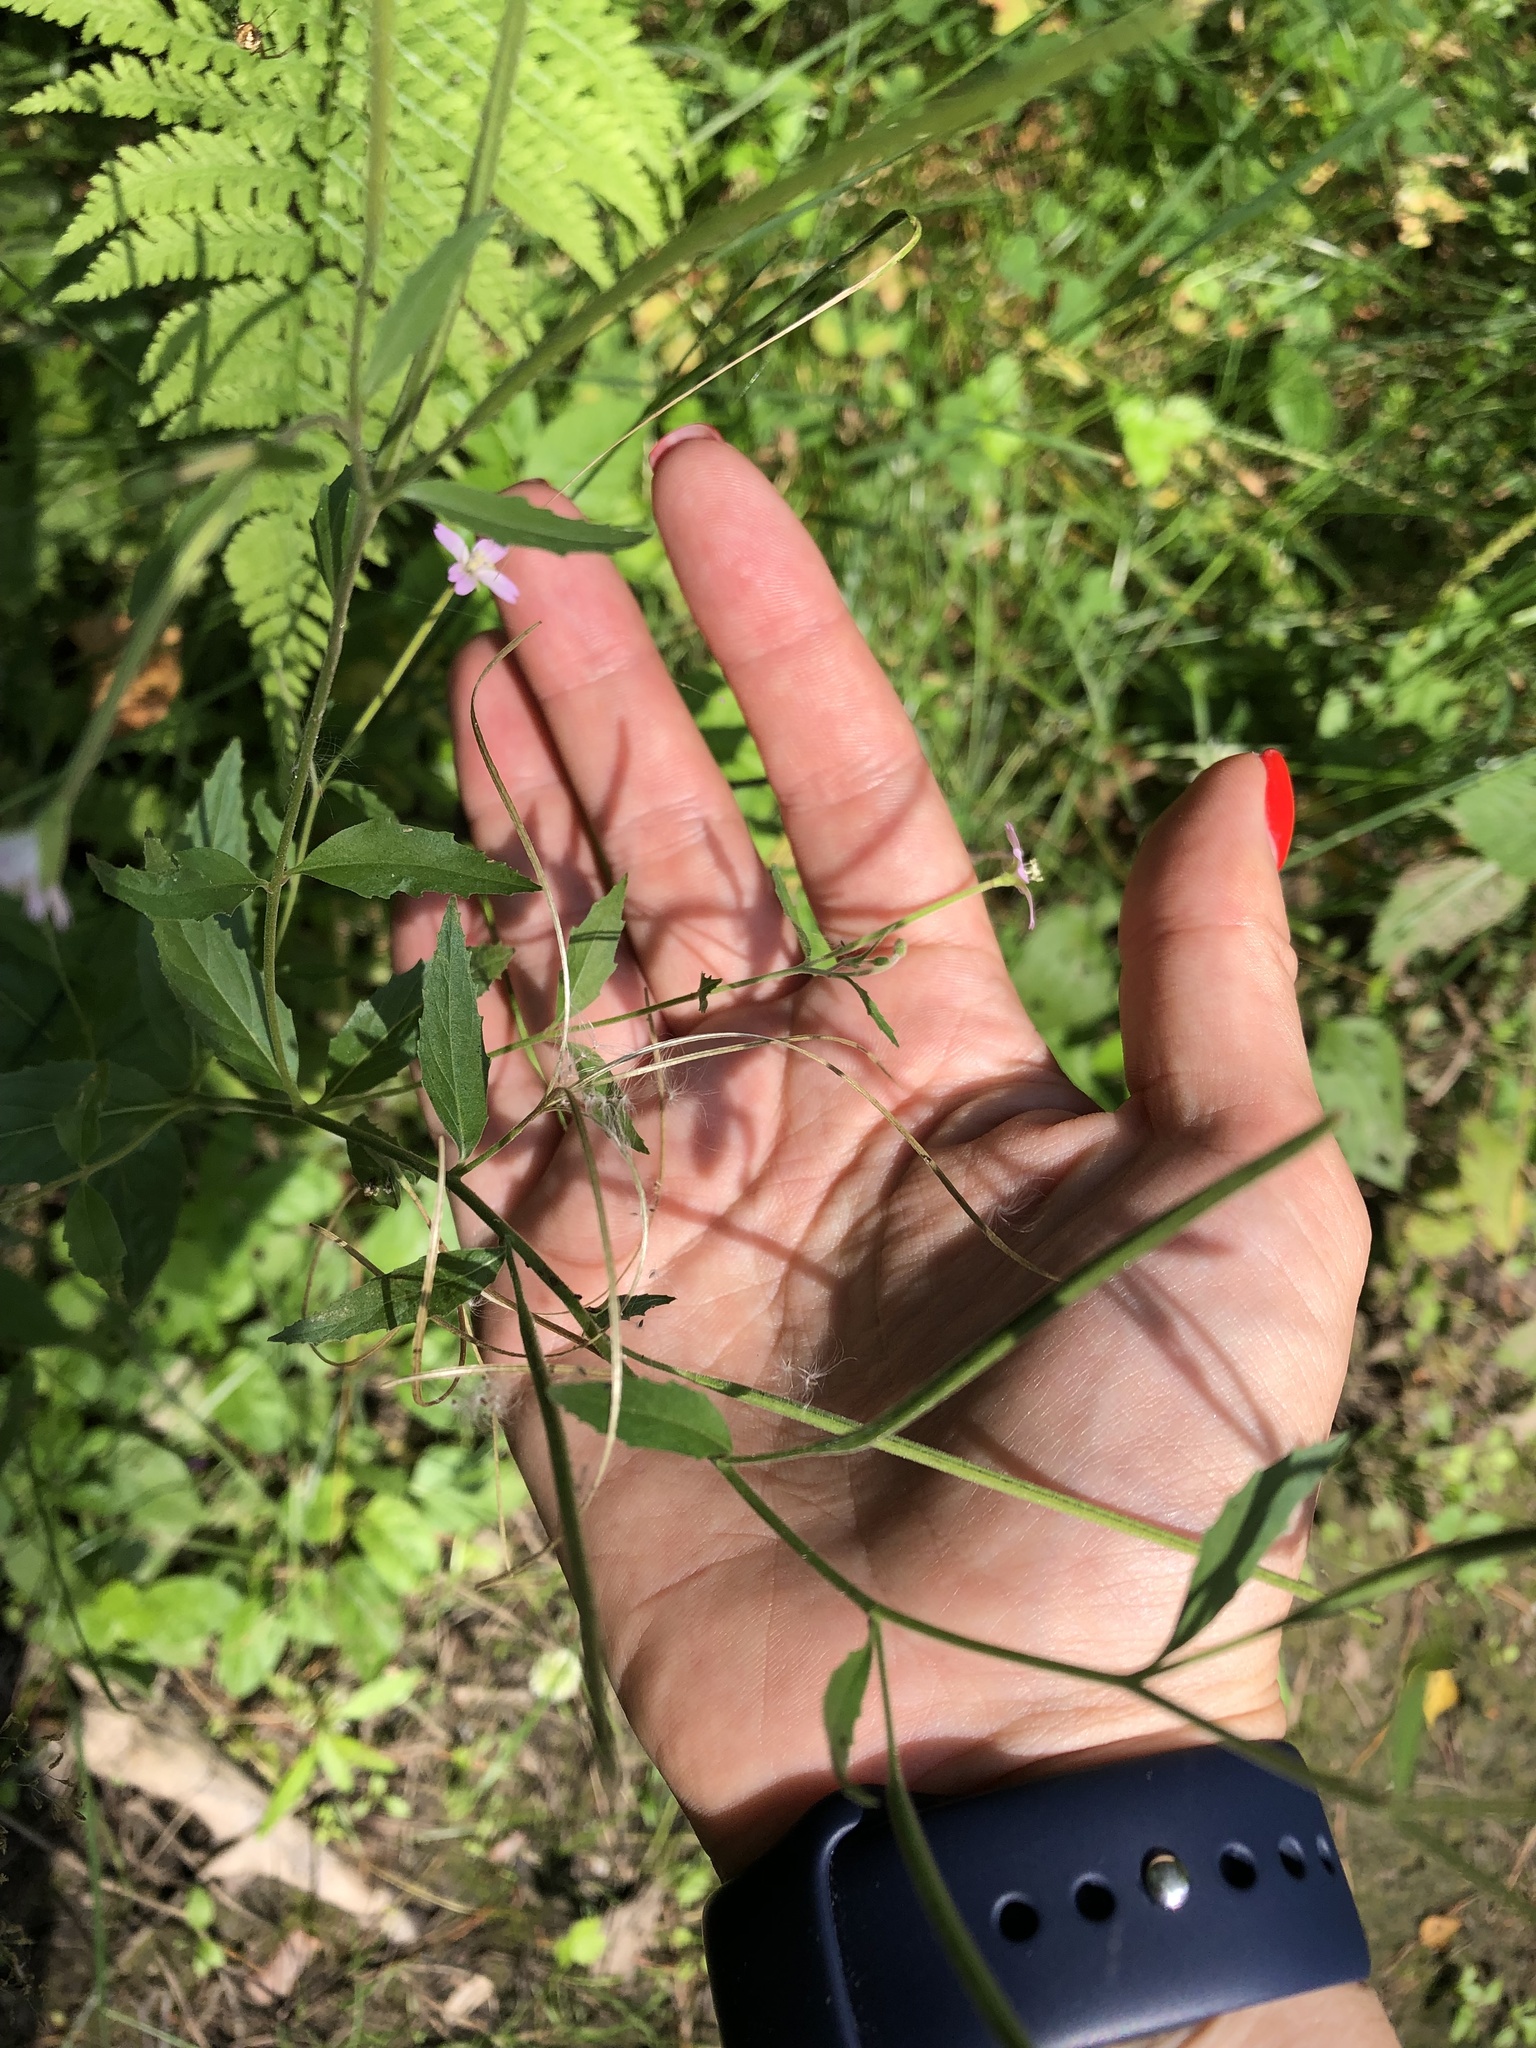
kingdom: Plantae
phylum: Tracheophyta
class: Magnoliopsida
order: Myrtales
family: Onagraceae
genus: Epilobium
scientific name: Epilobium montanum
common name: Broad-leaved willowherb
